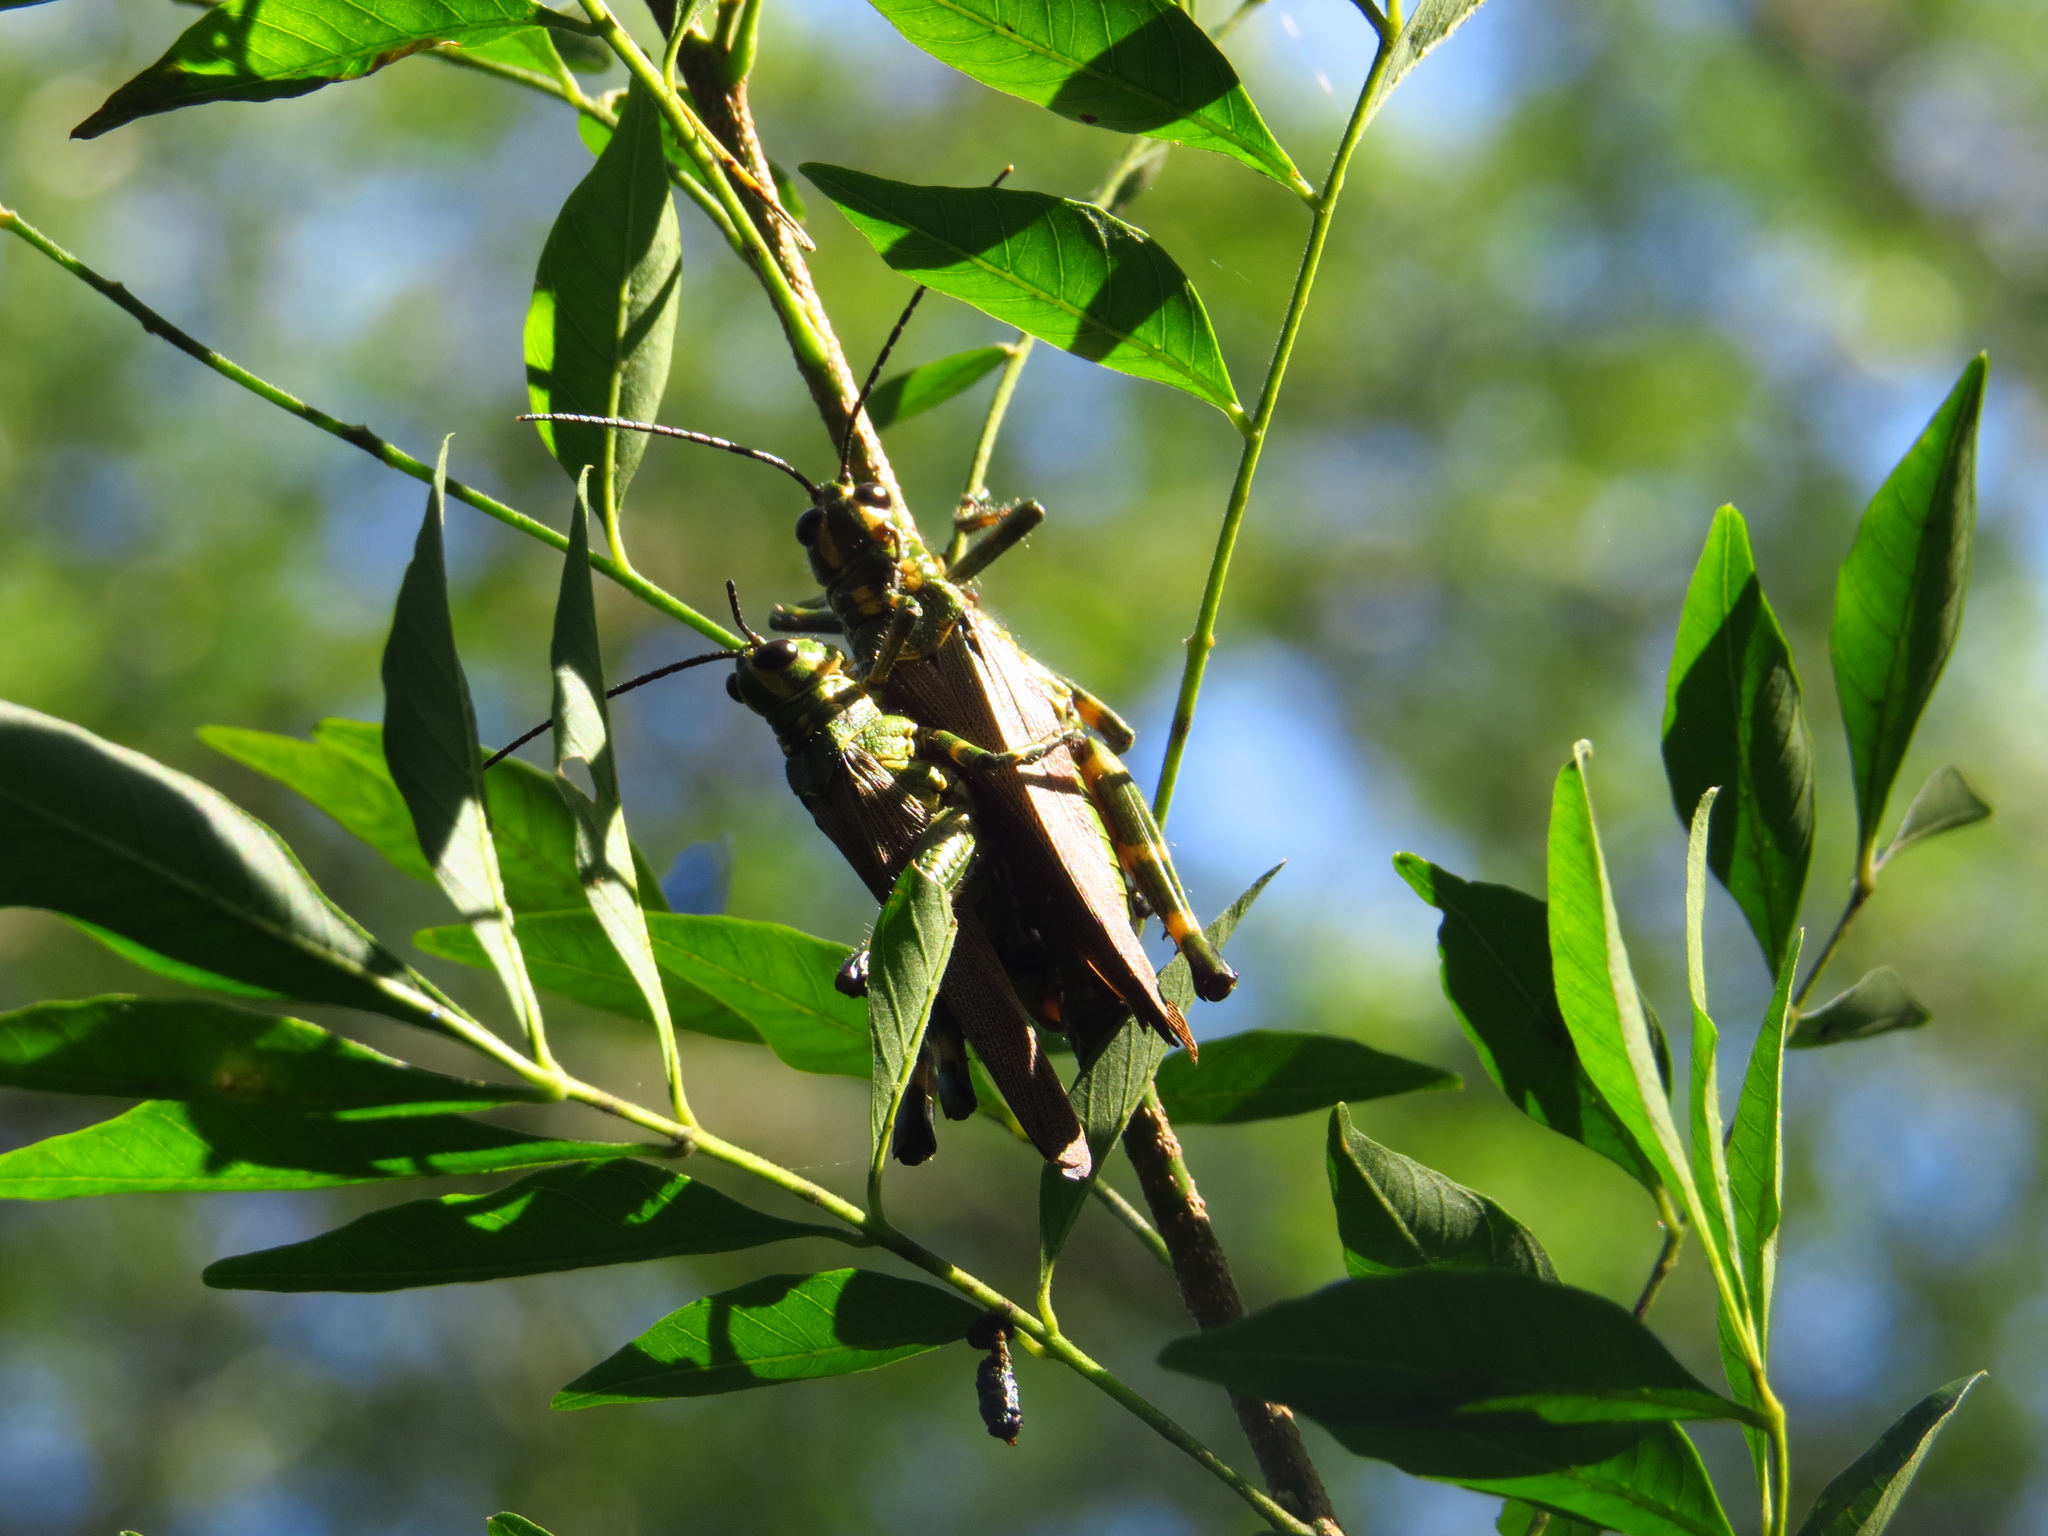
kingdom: Animalia
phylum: Arthropoda
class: Insecta
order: Orthoptera
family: Romaleidae
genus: Chromacris
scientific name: Chromacris speciosa
